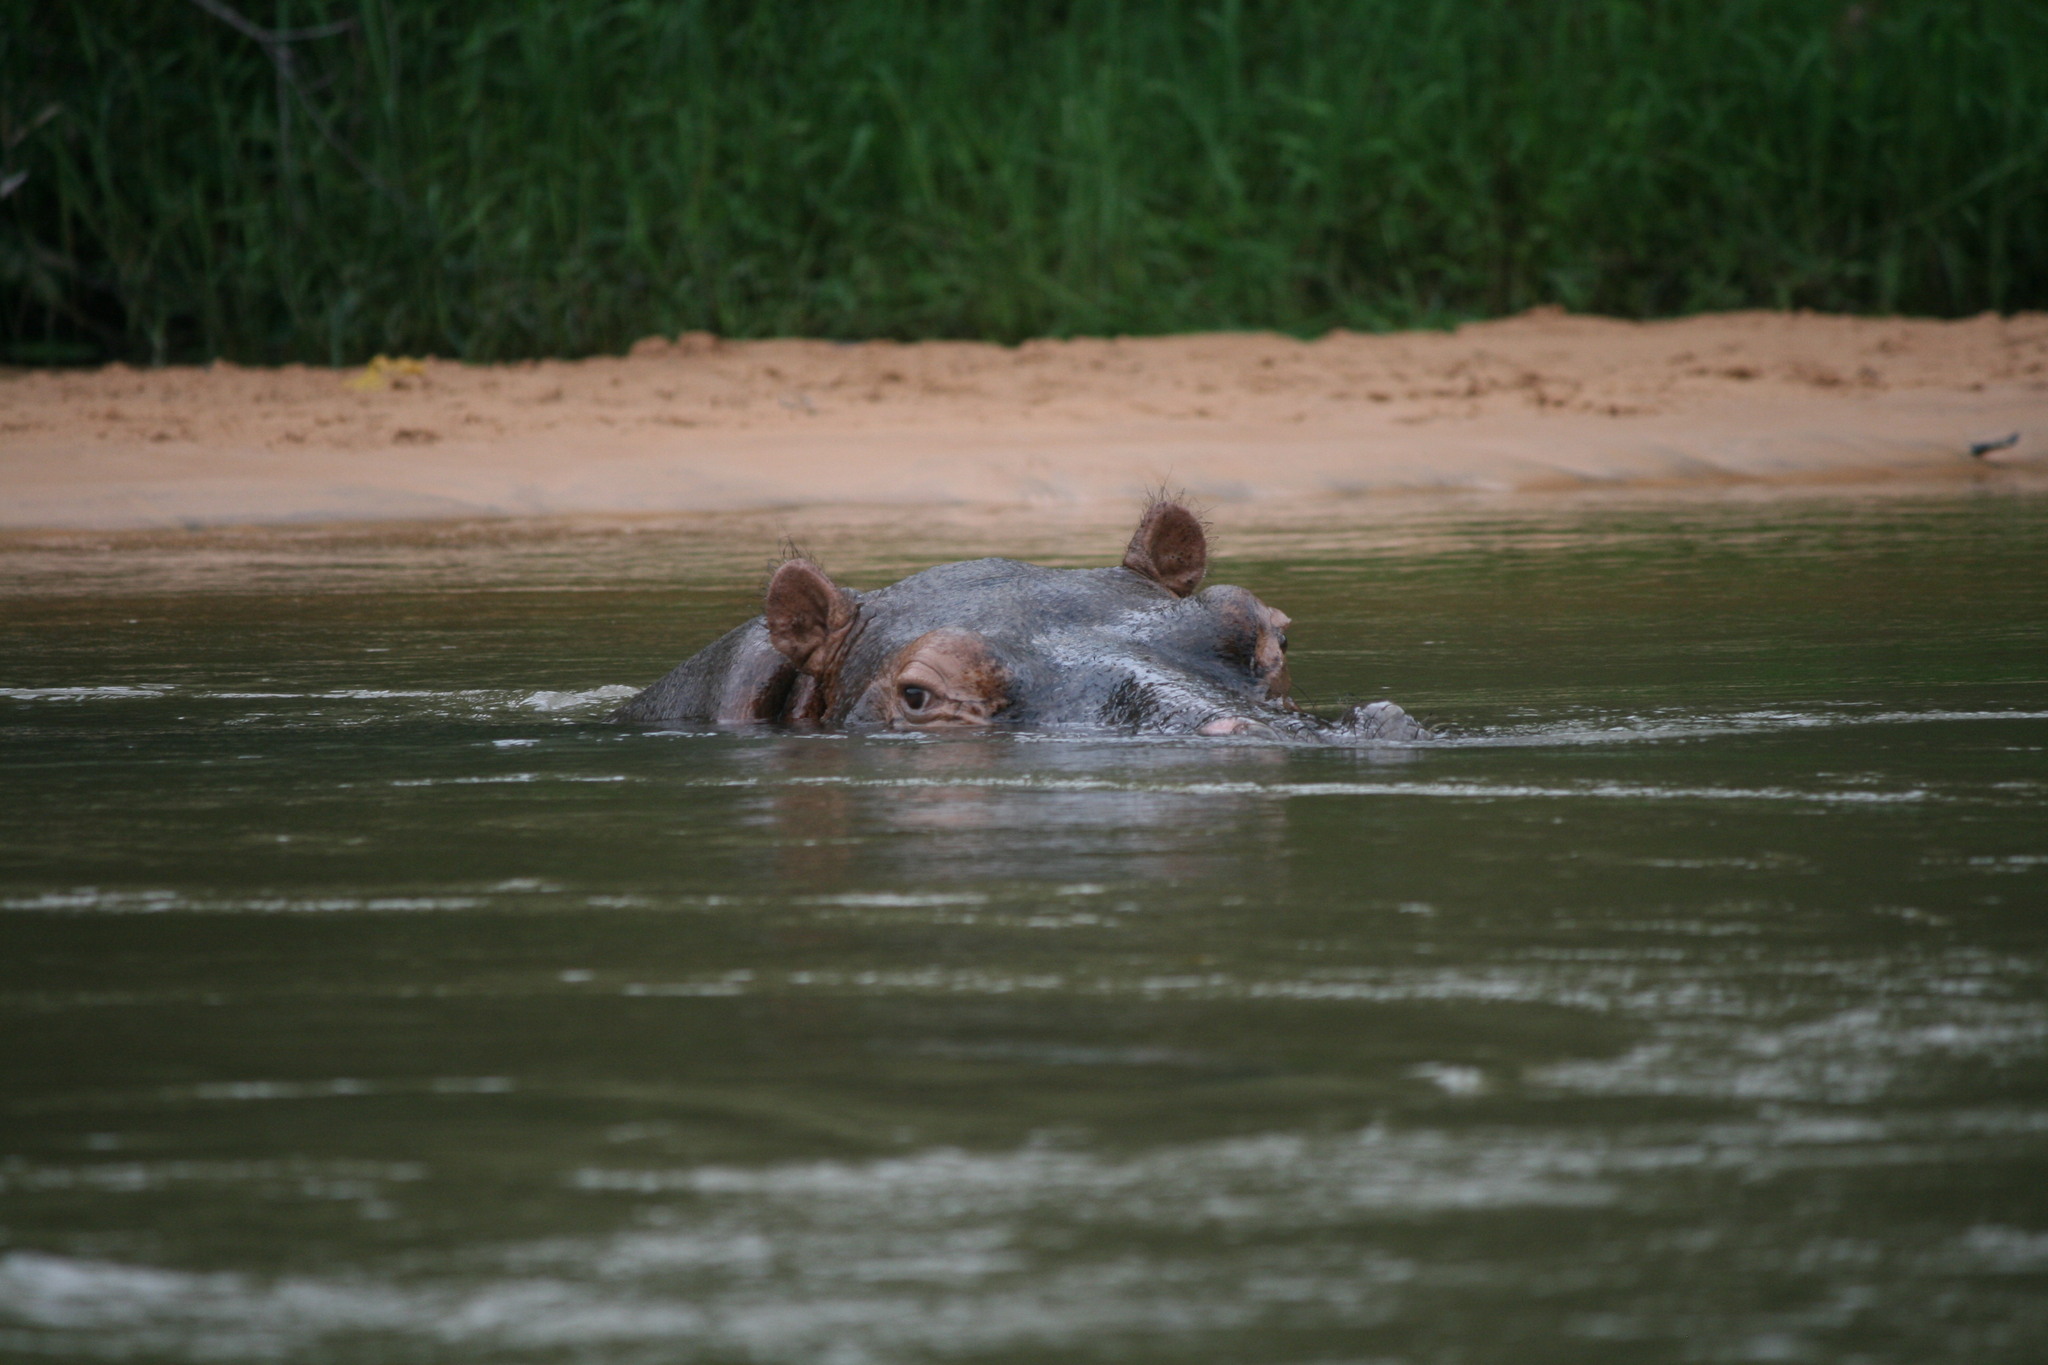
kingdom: Animalia
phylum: Chordata
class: Mammalia
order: Artiodactyla
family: Hippopotamidae
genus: Hippopotamus
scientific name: Hippopotamus amphibius
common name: Common hippopotamus
